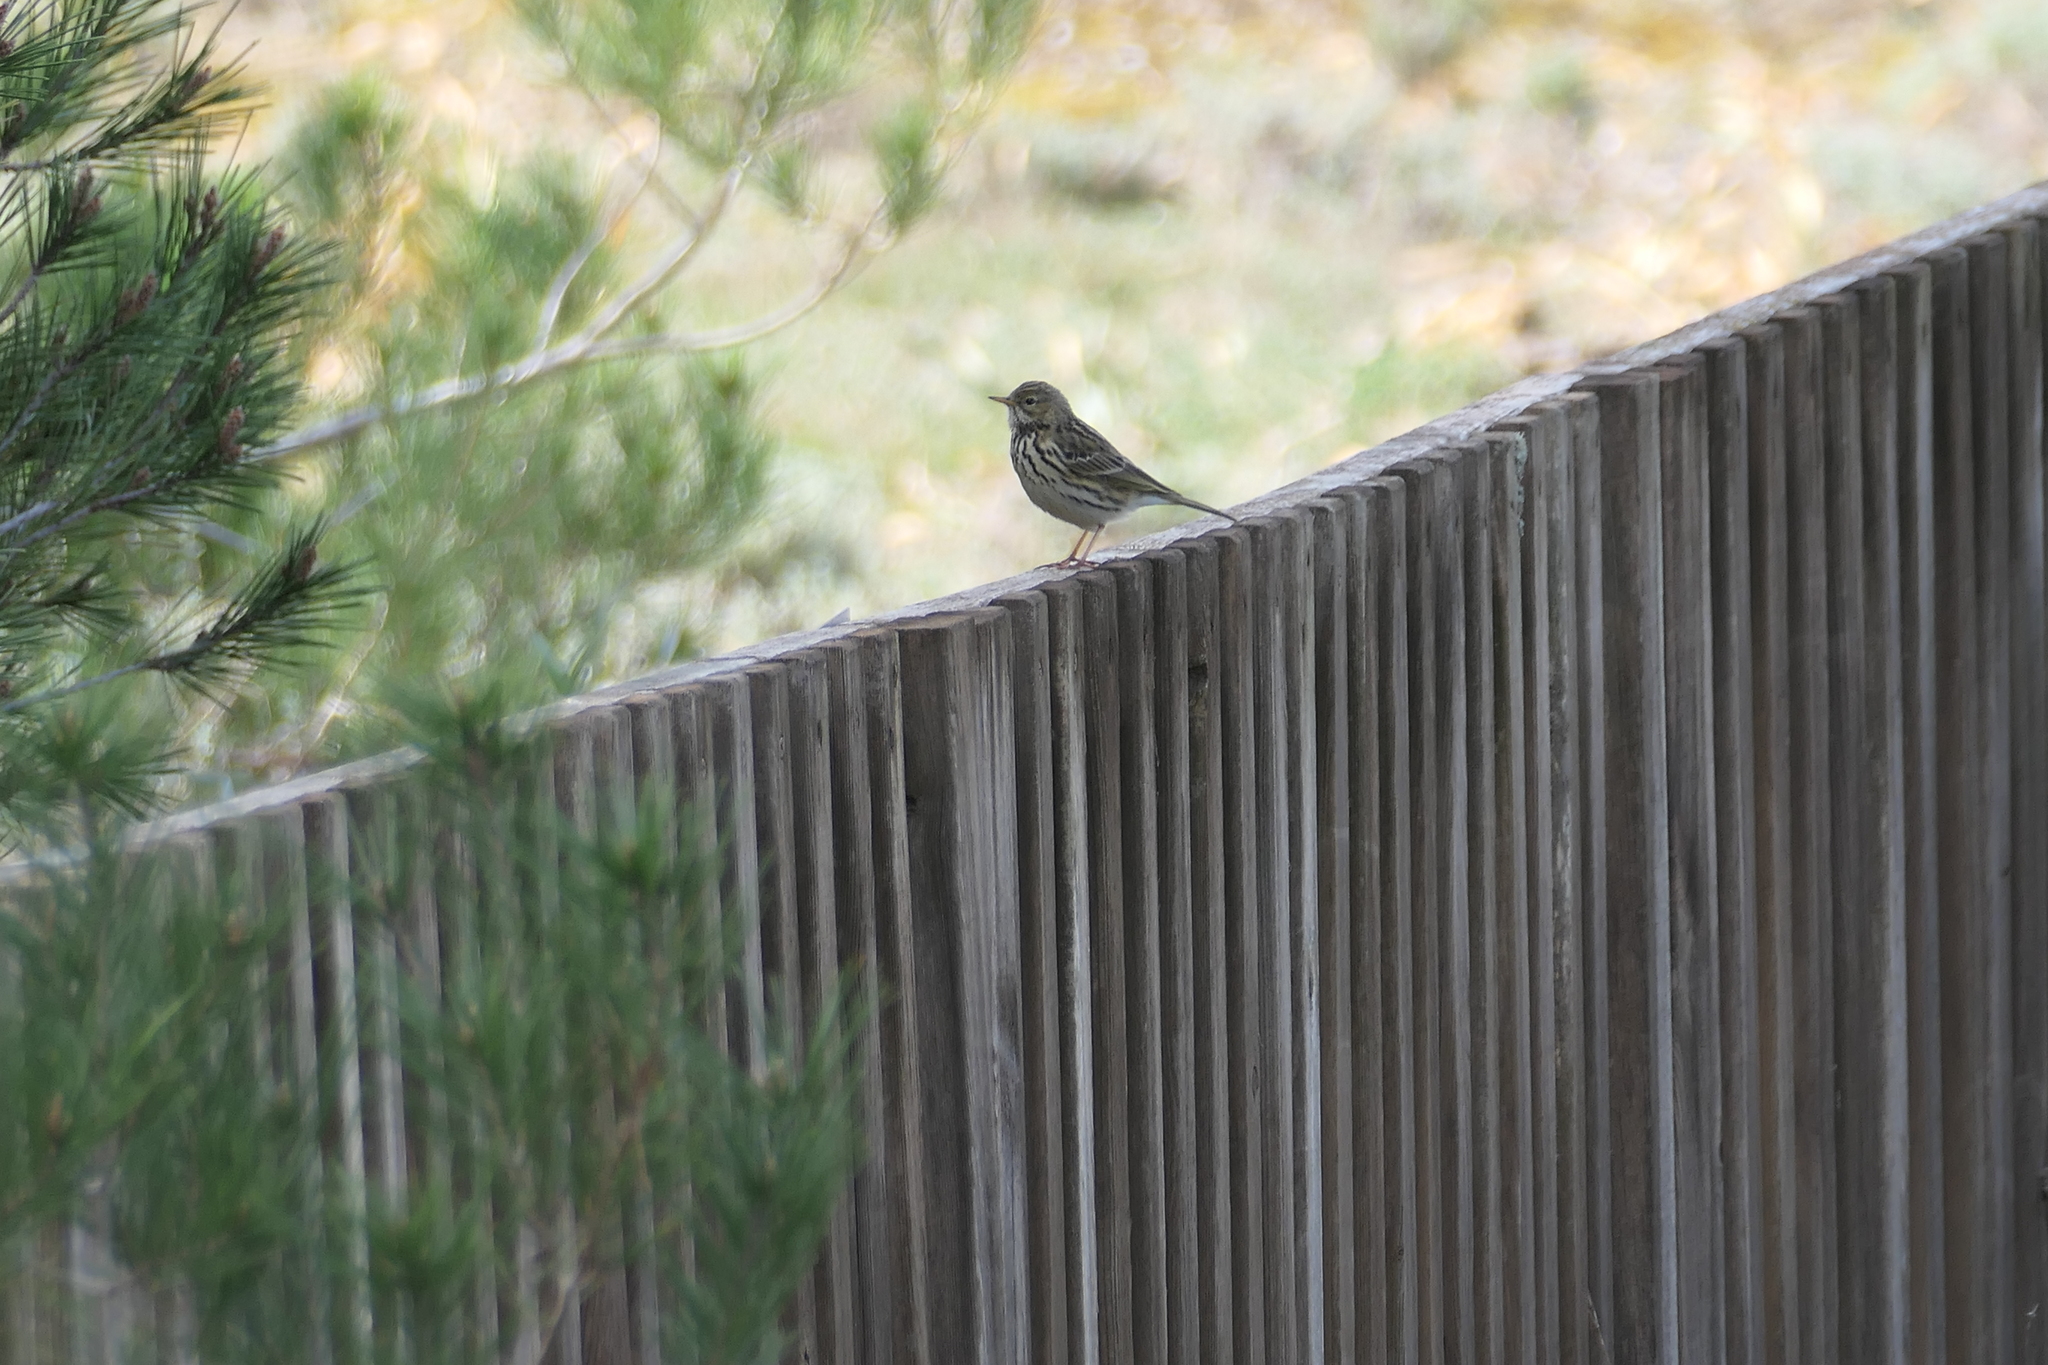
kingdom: Animalia
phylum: Chordata
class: Aves
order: Passeriformes
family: Motacillidae
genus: Anthus
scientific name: Anthus pratensis
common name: Meadow pipit
